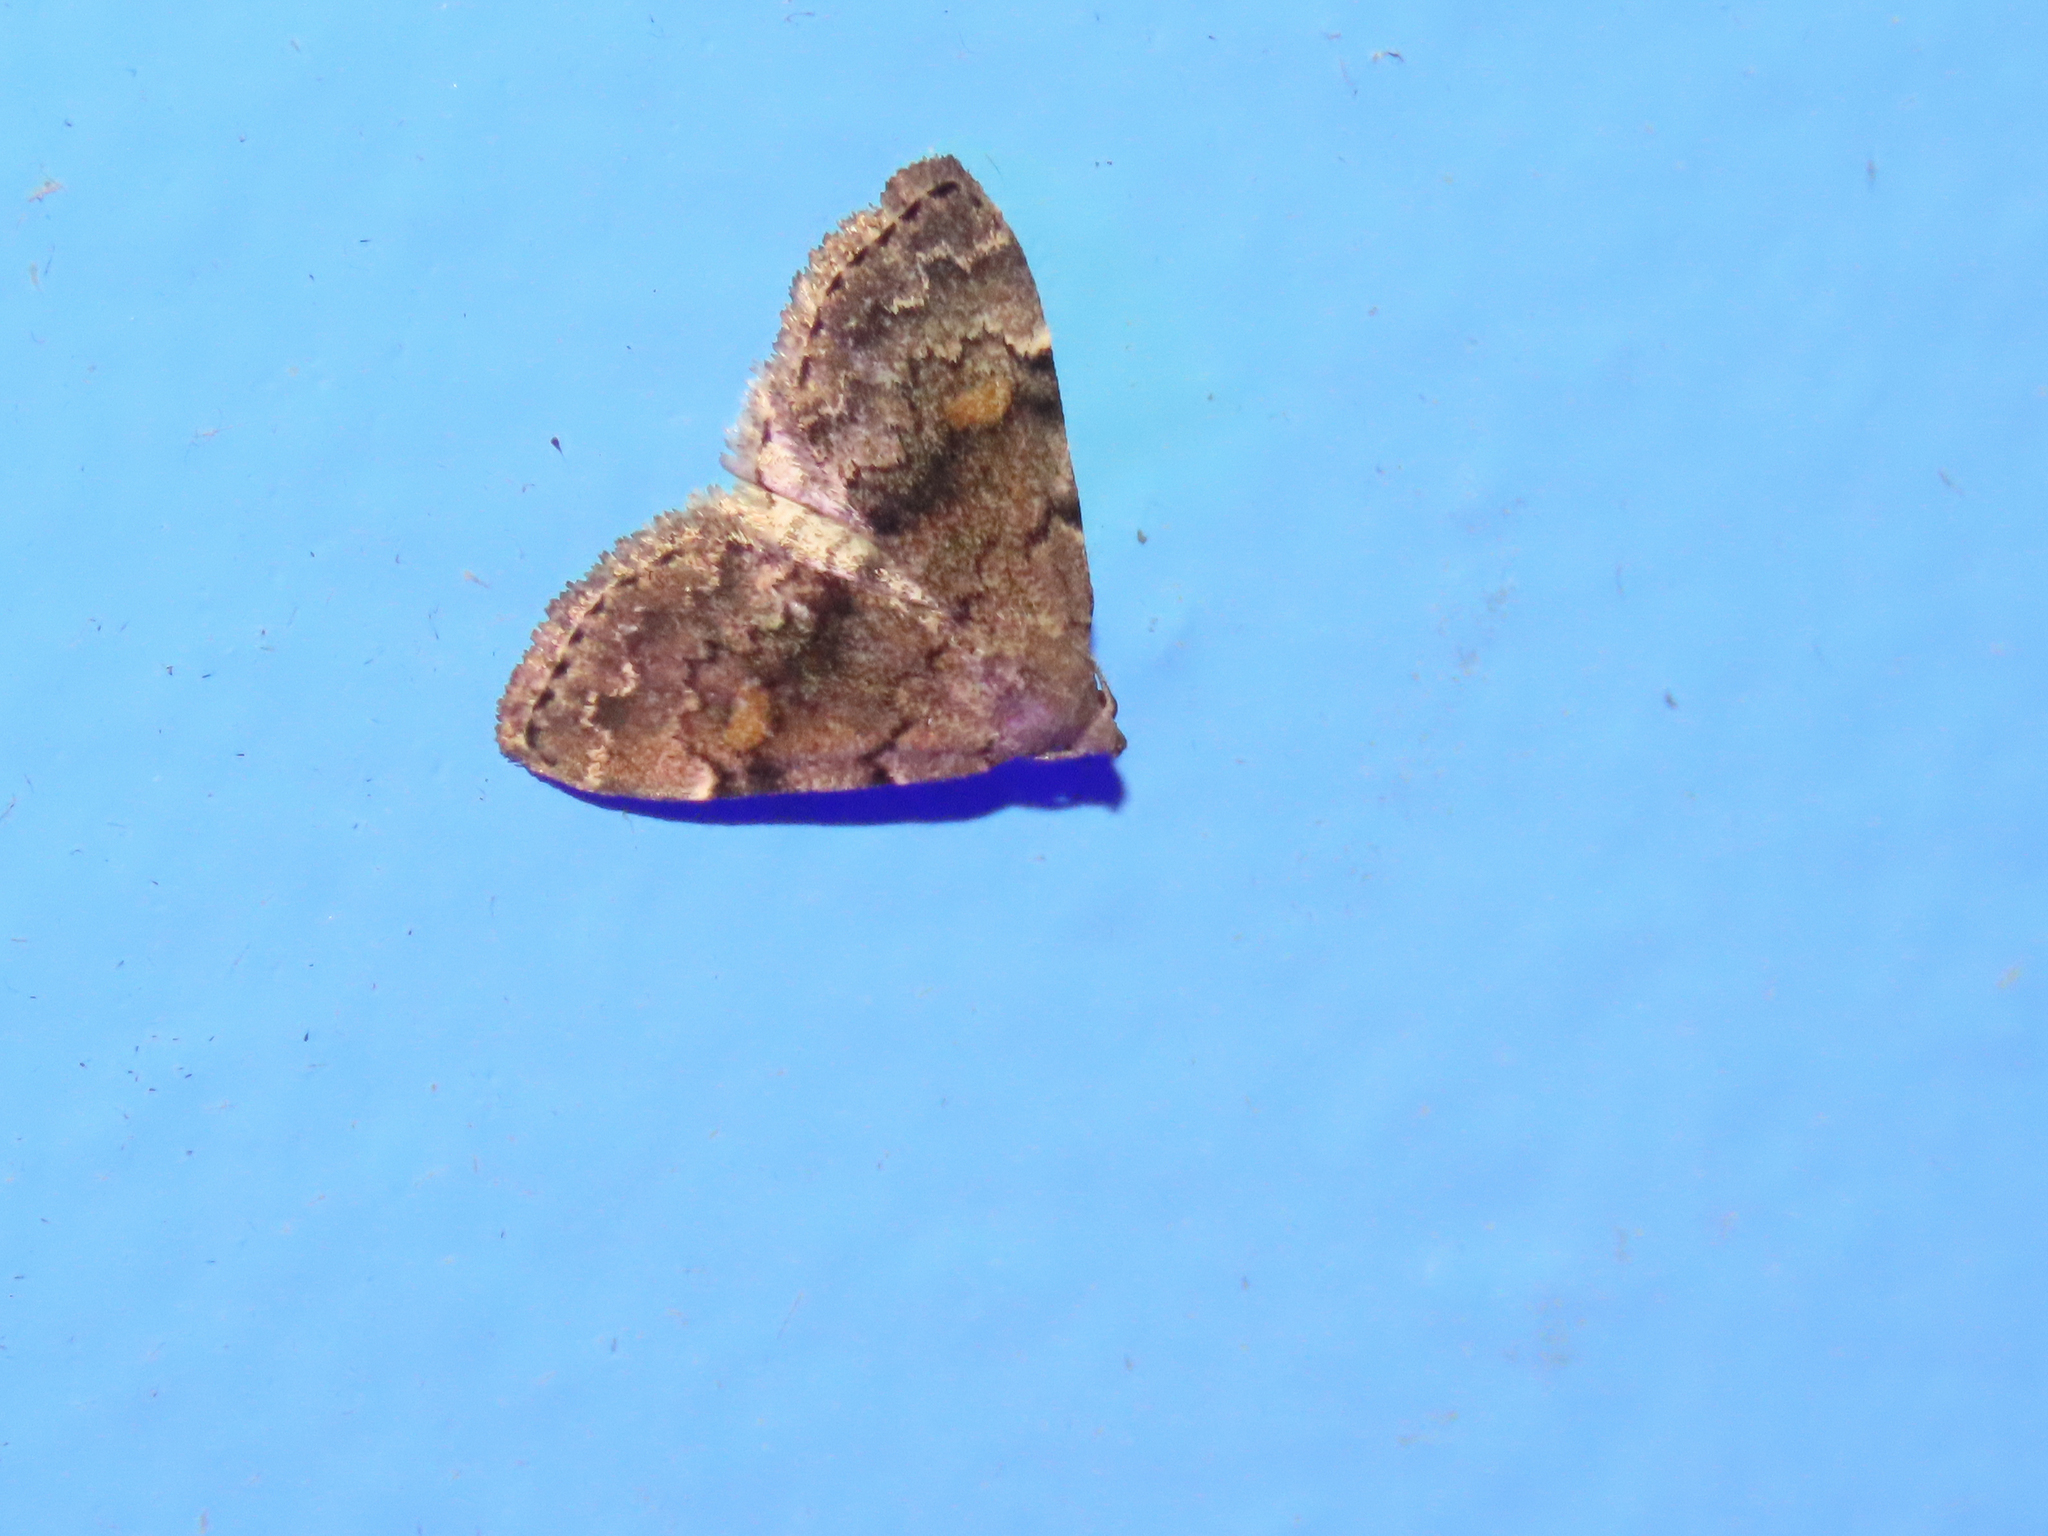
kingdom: Animalia
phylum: Arthropoda
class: Insecta
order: Lepidoptera
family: Erebidae
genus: Idia
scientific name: Idia aemula
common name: Common idia moth
